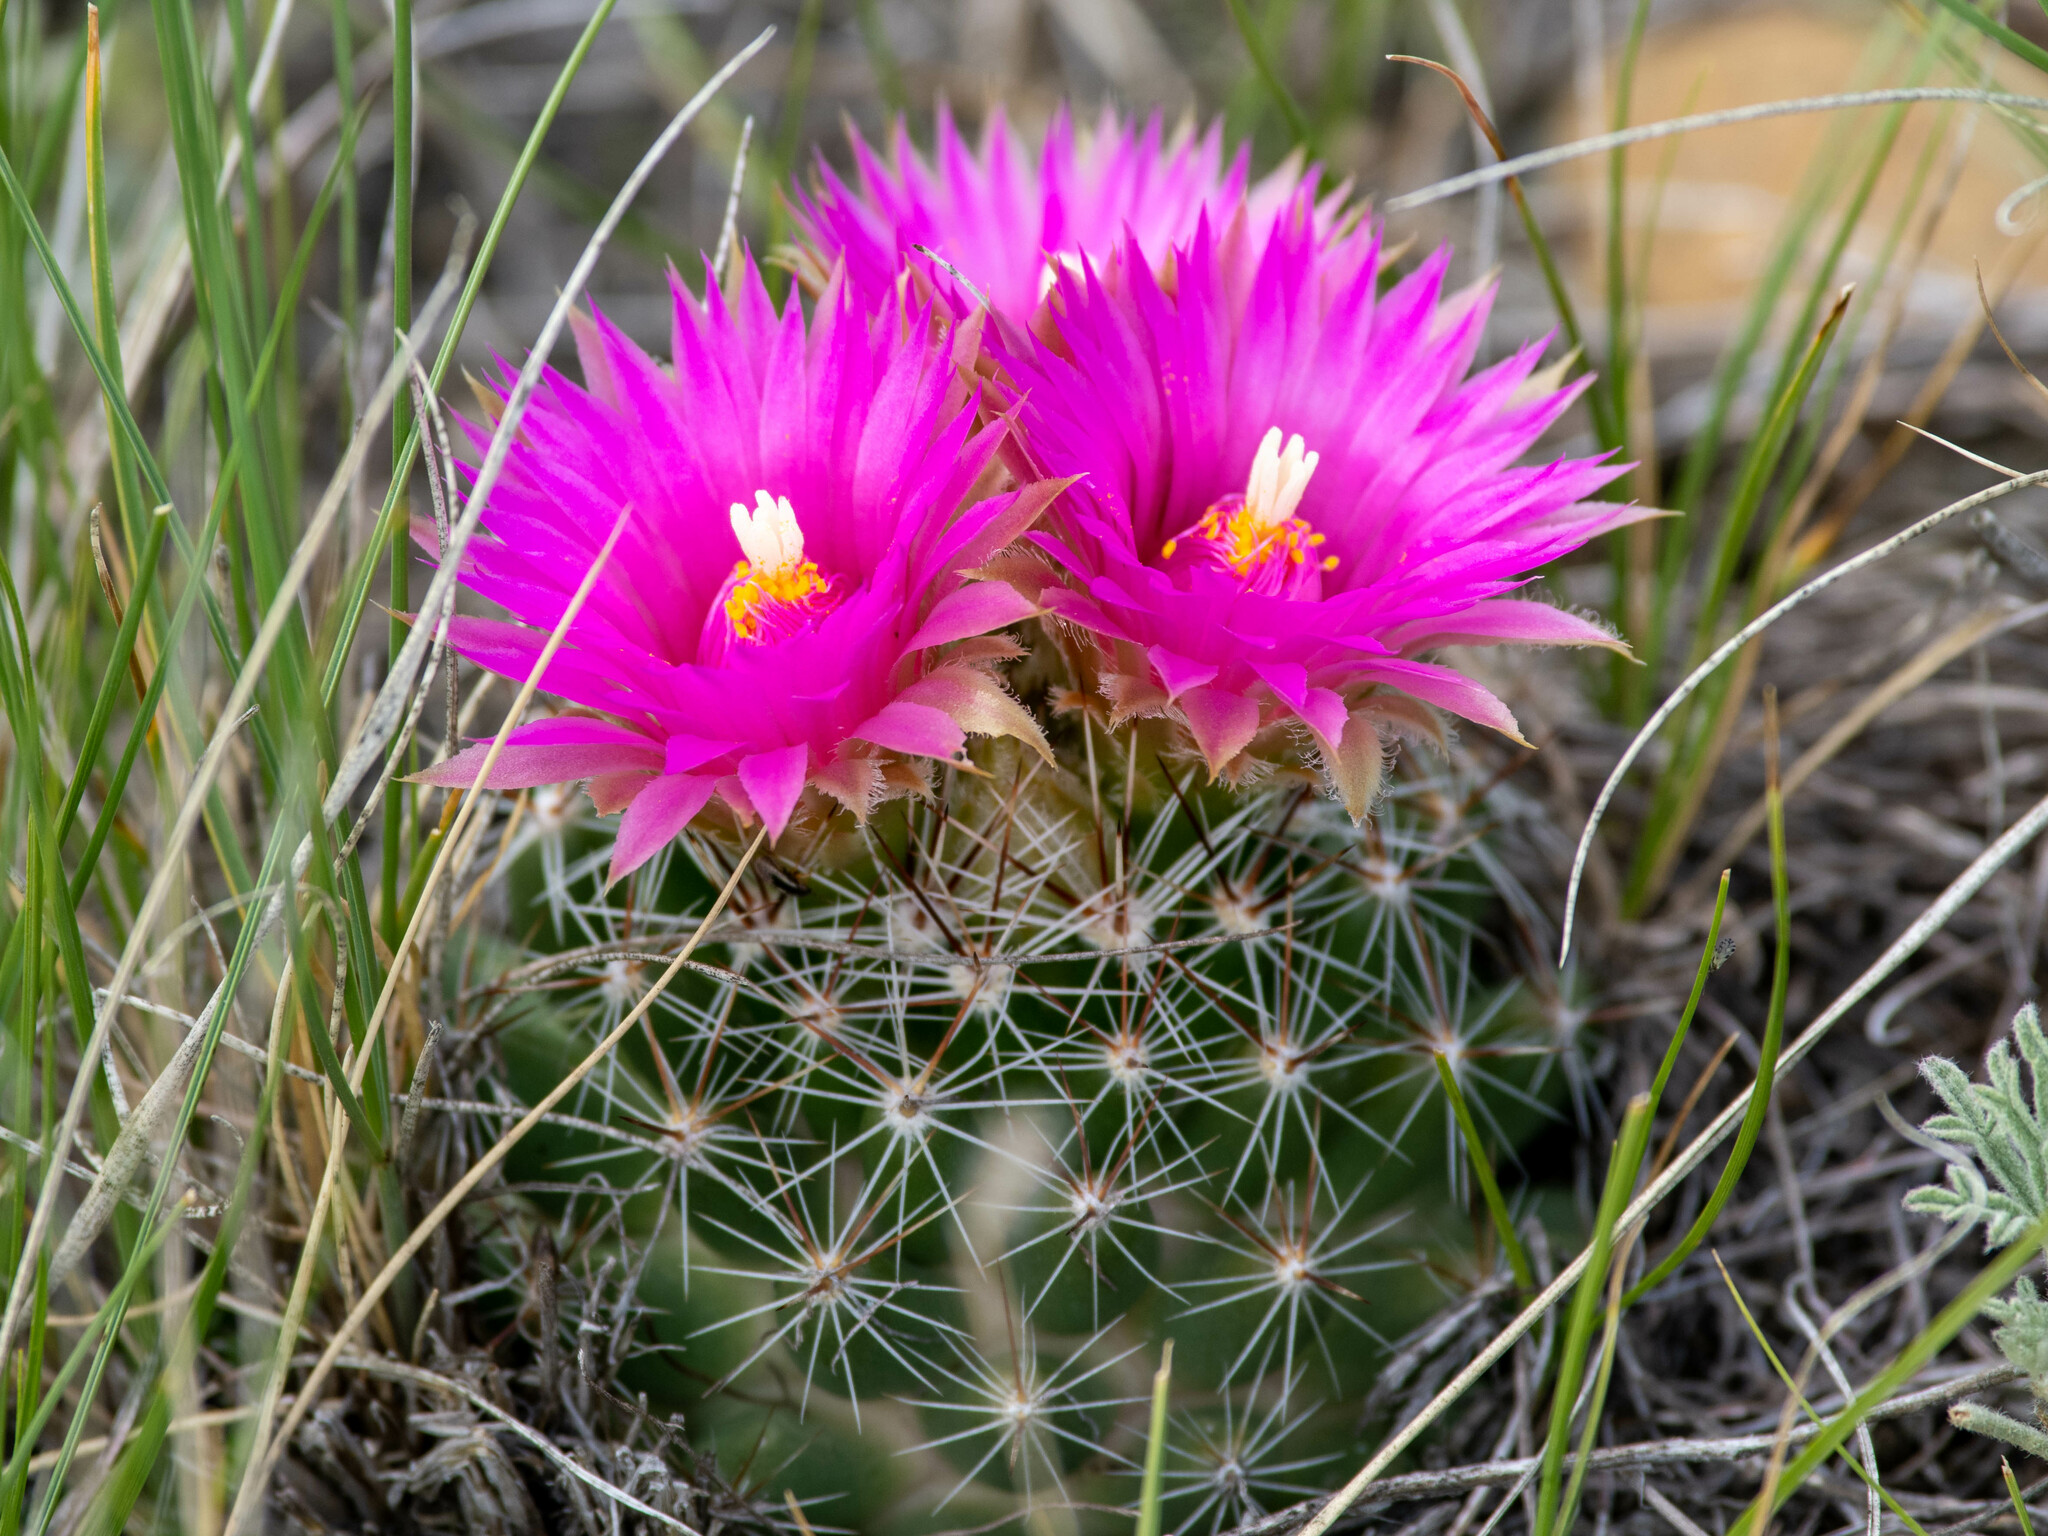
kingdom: Plantae
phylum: Tracheophyta
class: Magnoliopsida
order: Caryophyllales
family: Cactaceae
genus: Pelecyphora
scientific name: Pelecyphora vivipara
